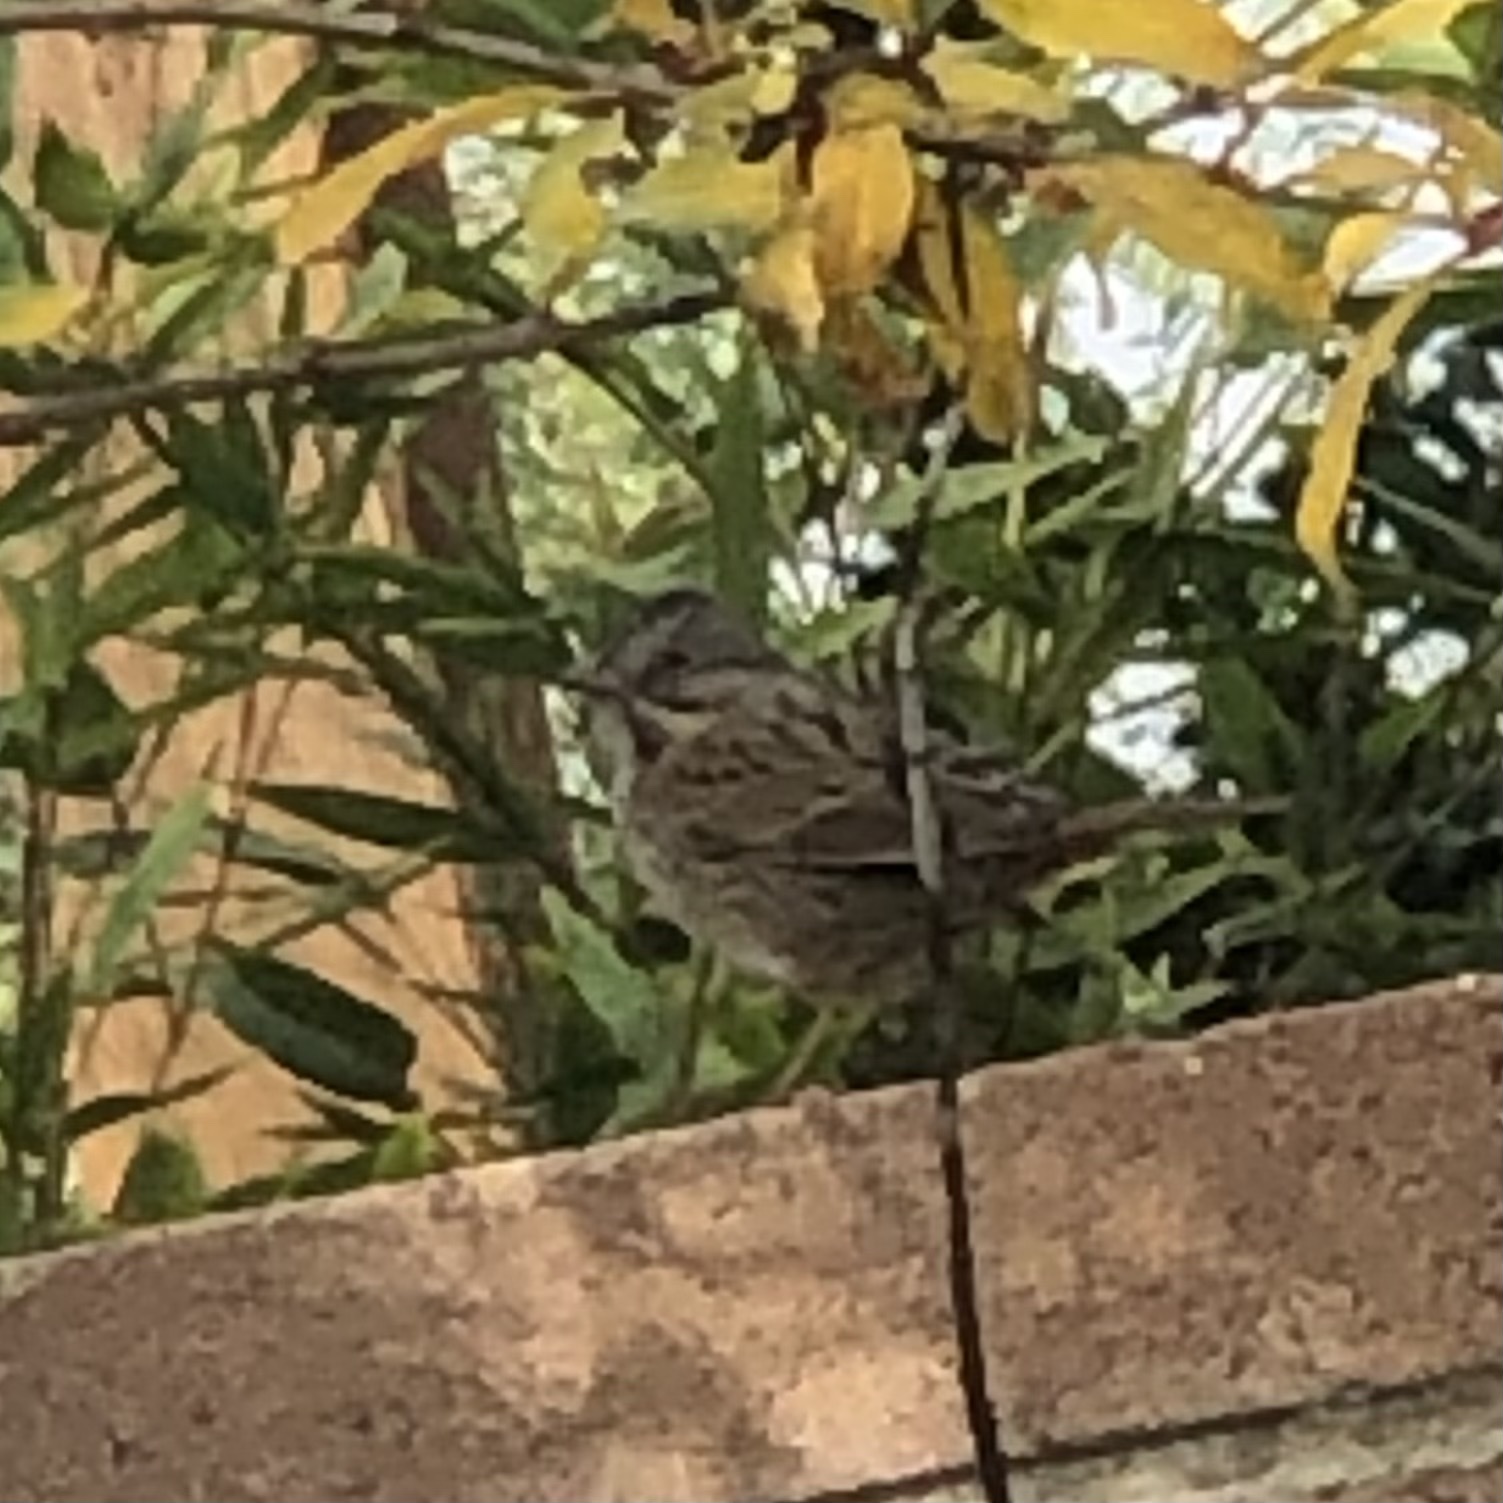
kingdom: Animalia
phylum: Chordata
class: Aves
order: Passeriformes
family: Passerellidae
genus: Melospiza
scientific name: Melospiza lincolnii
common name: Lincoln's sparrow
